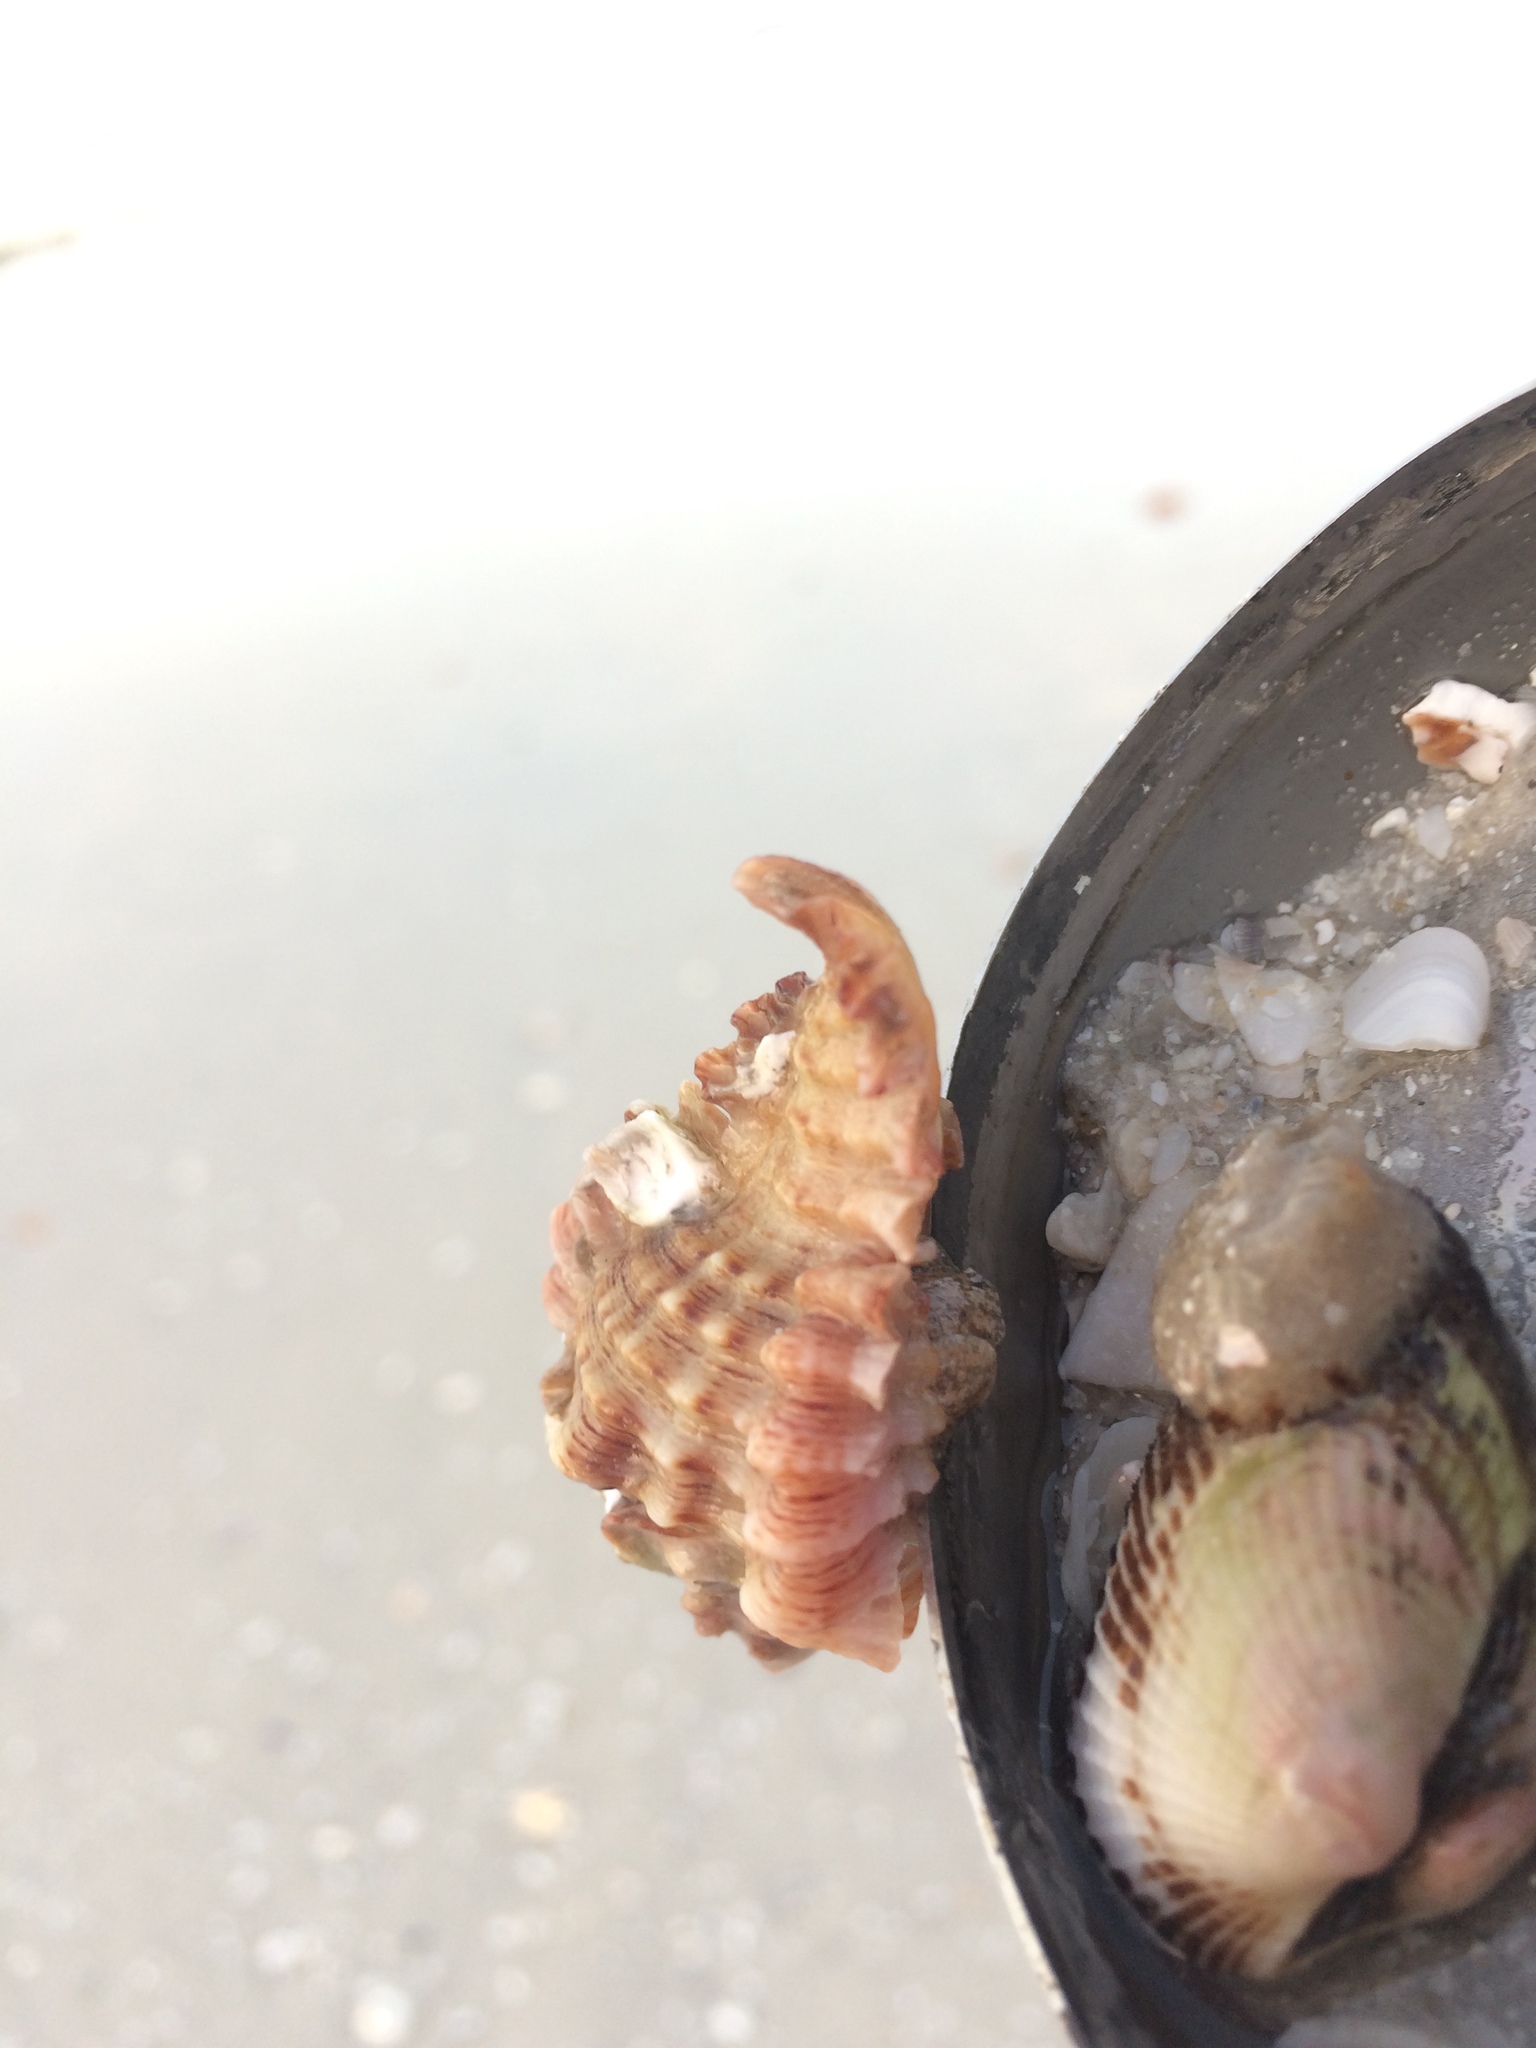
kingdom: Animalia
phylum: Mollusca
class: Gastropoda
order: Neogastropoda
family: Muricidae
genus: Chicoreus
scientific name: Chicoreus florifer
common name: Flowery lace murex
